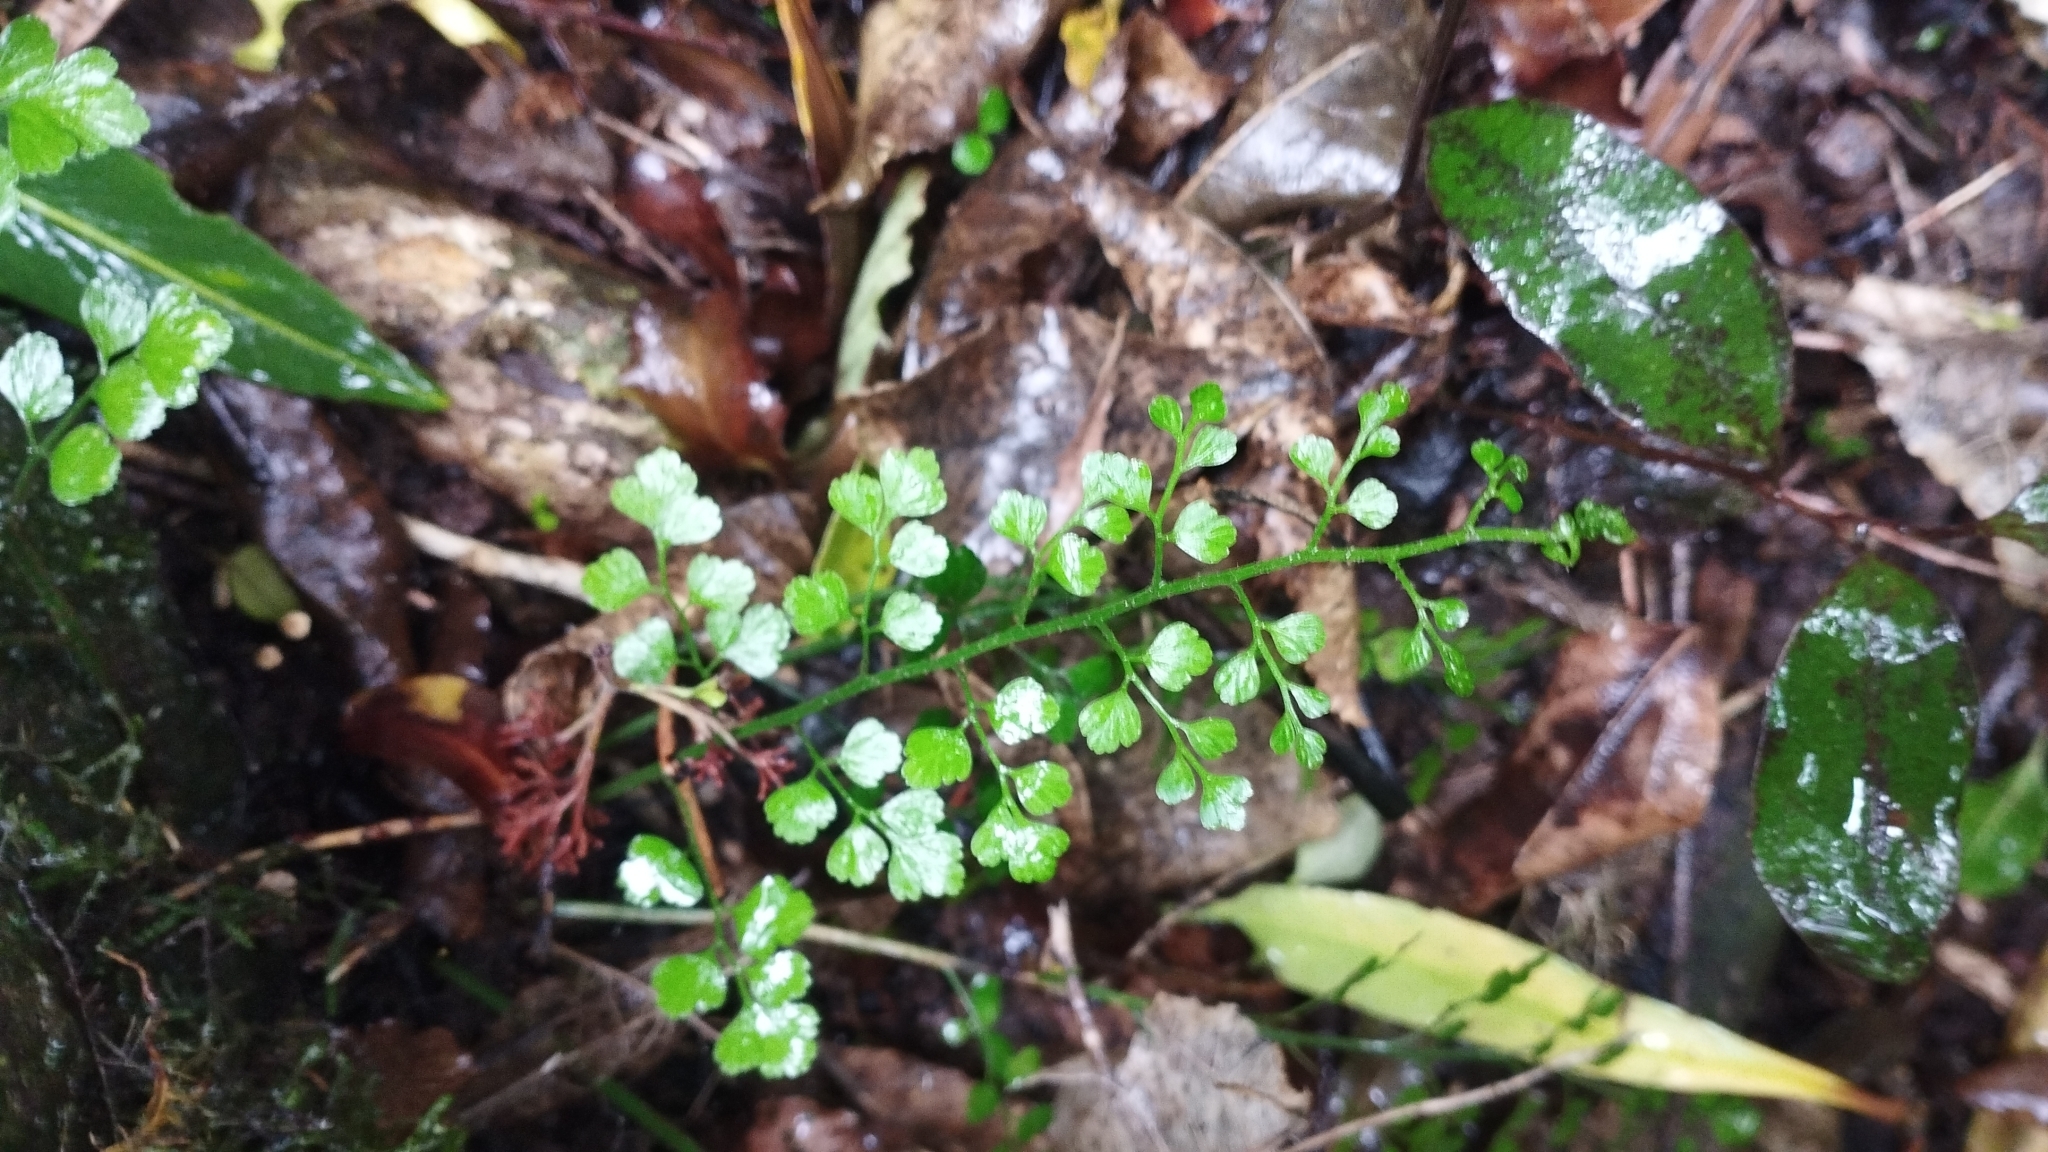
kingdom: Plantae
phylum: Tracheophyta
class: Polypodiopsida
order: Polypodiales
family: Aspleniaceae
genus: Asplenium
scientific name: Asplenium hookerianum
